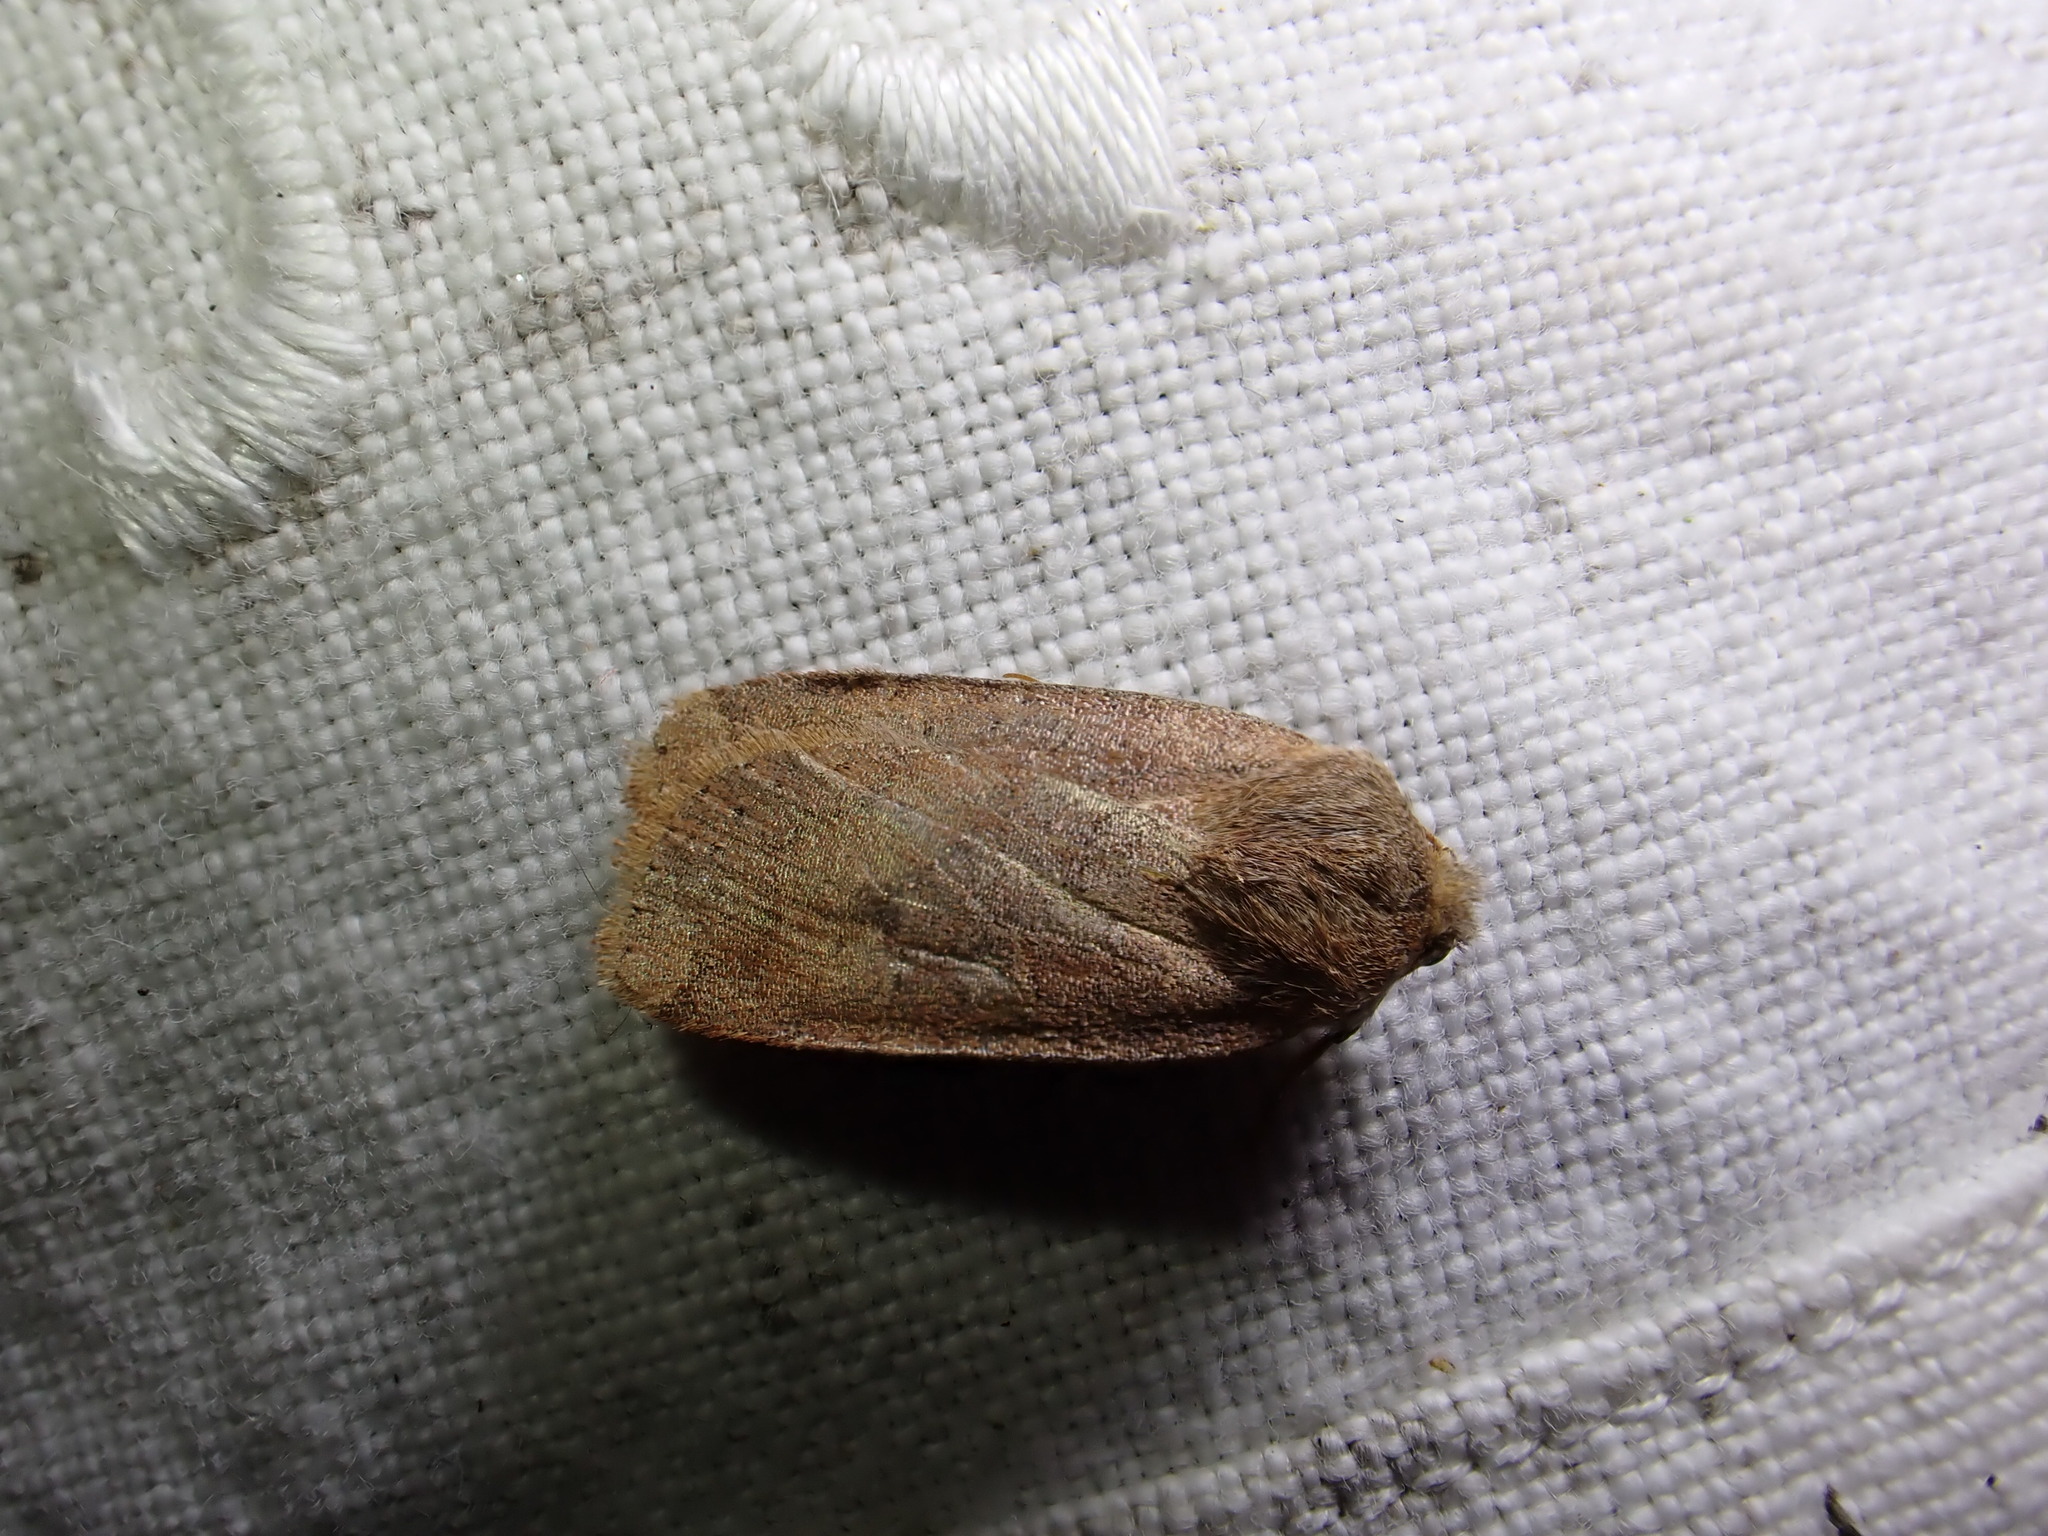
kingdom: Animalia
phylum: Arthropoda
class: Insecta
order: Lepidoptera
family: Noctuidae
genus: Conistra
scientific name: Conistra vaccinii
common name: Chestnut
